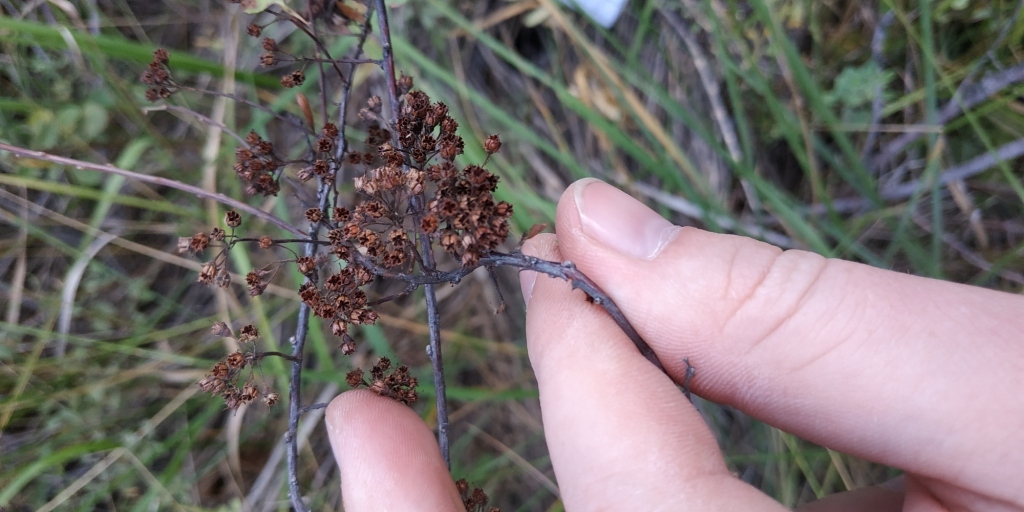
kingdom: Plantae
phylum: Tracheophyta
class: Magnoliopsida
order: Rosales
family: Rosaceae
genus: Spiraea
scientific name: Spiraea crenata
